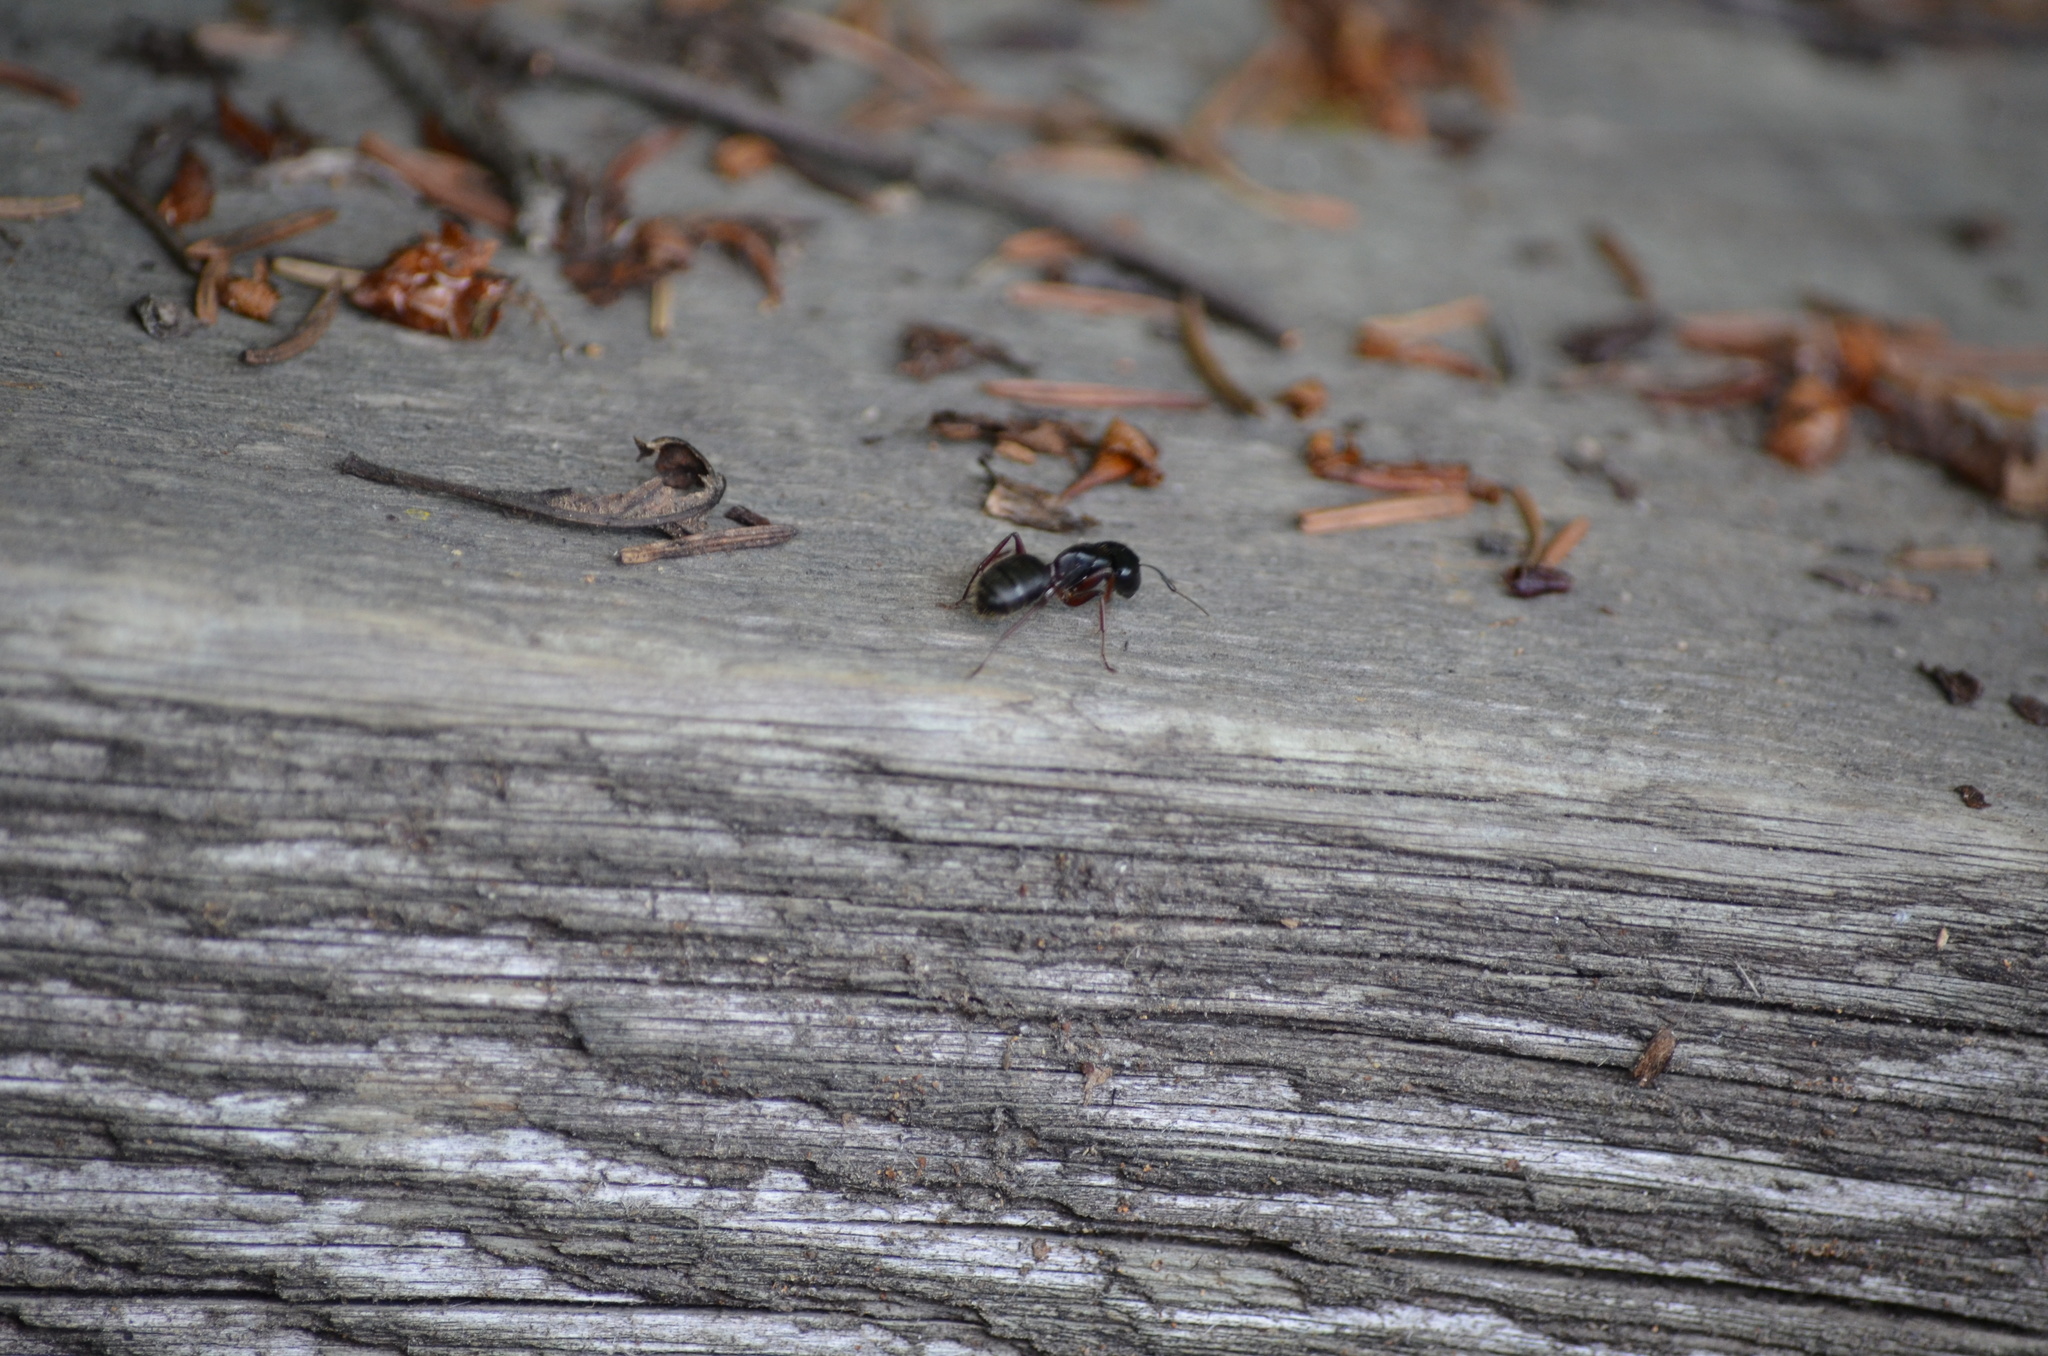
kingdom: Animalia
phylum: Arthropoda
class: Insecta
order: Hymenoptera
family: Formicidae
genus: Camponotus
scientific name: Camponotus herculeanus
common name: Hercules ant
